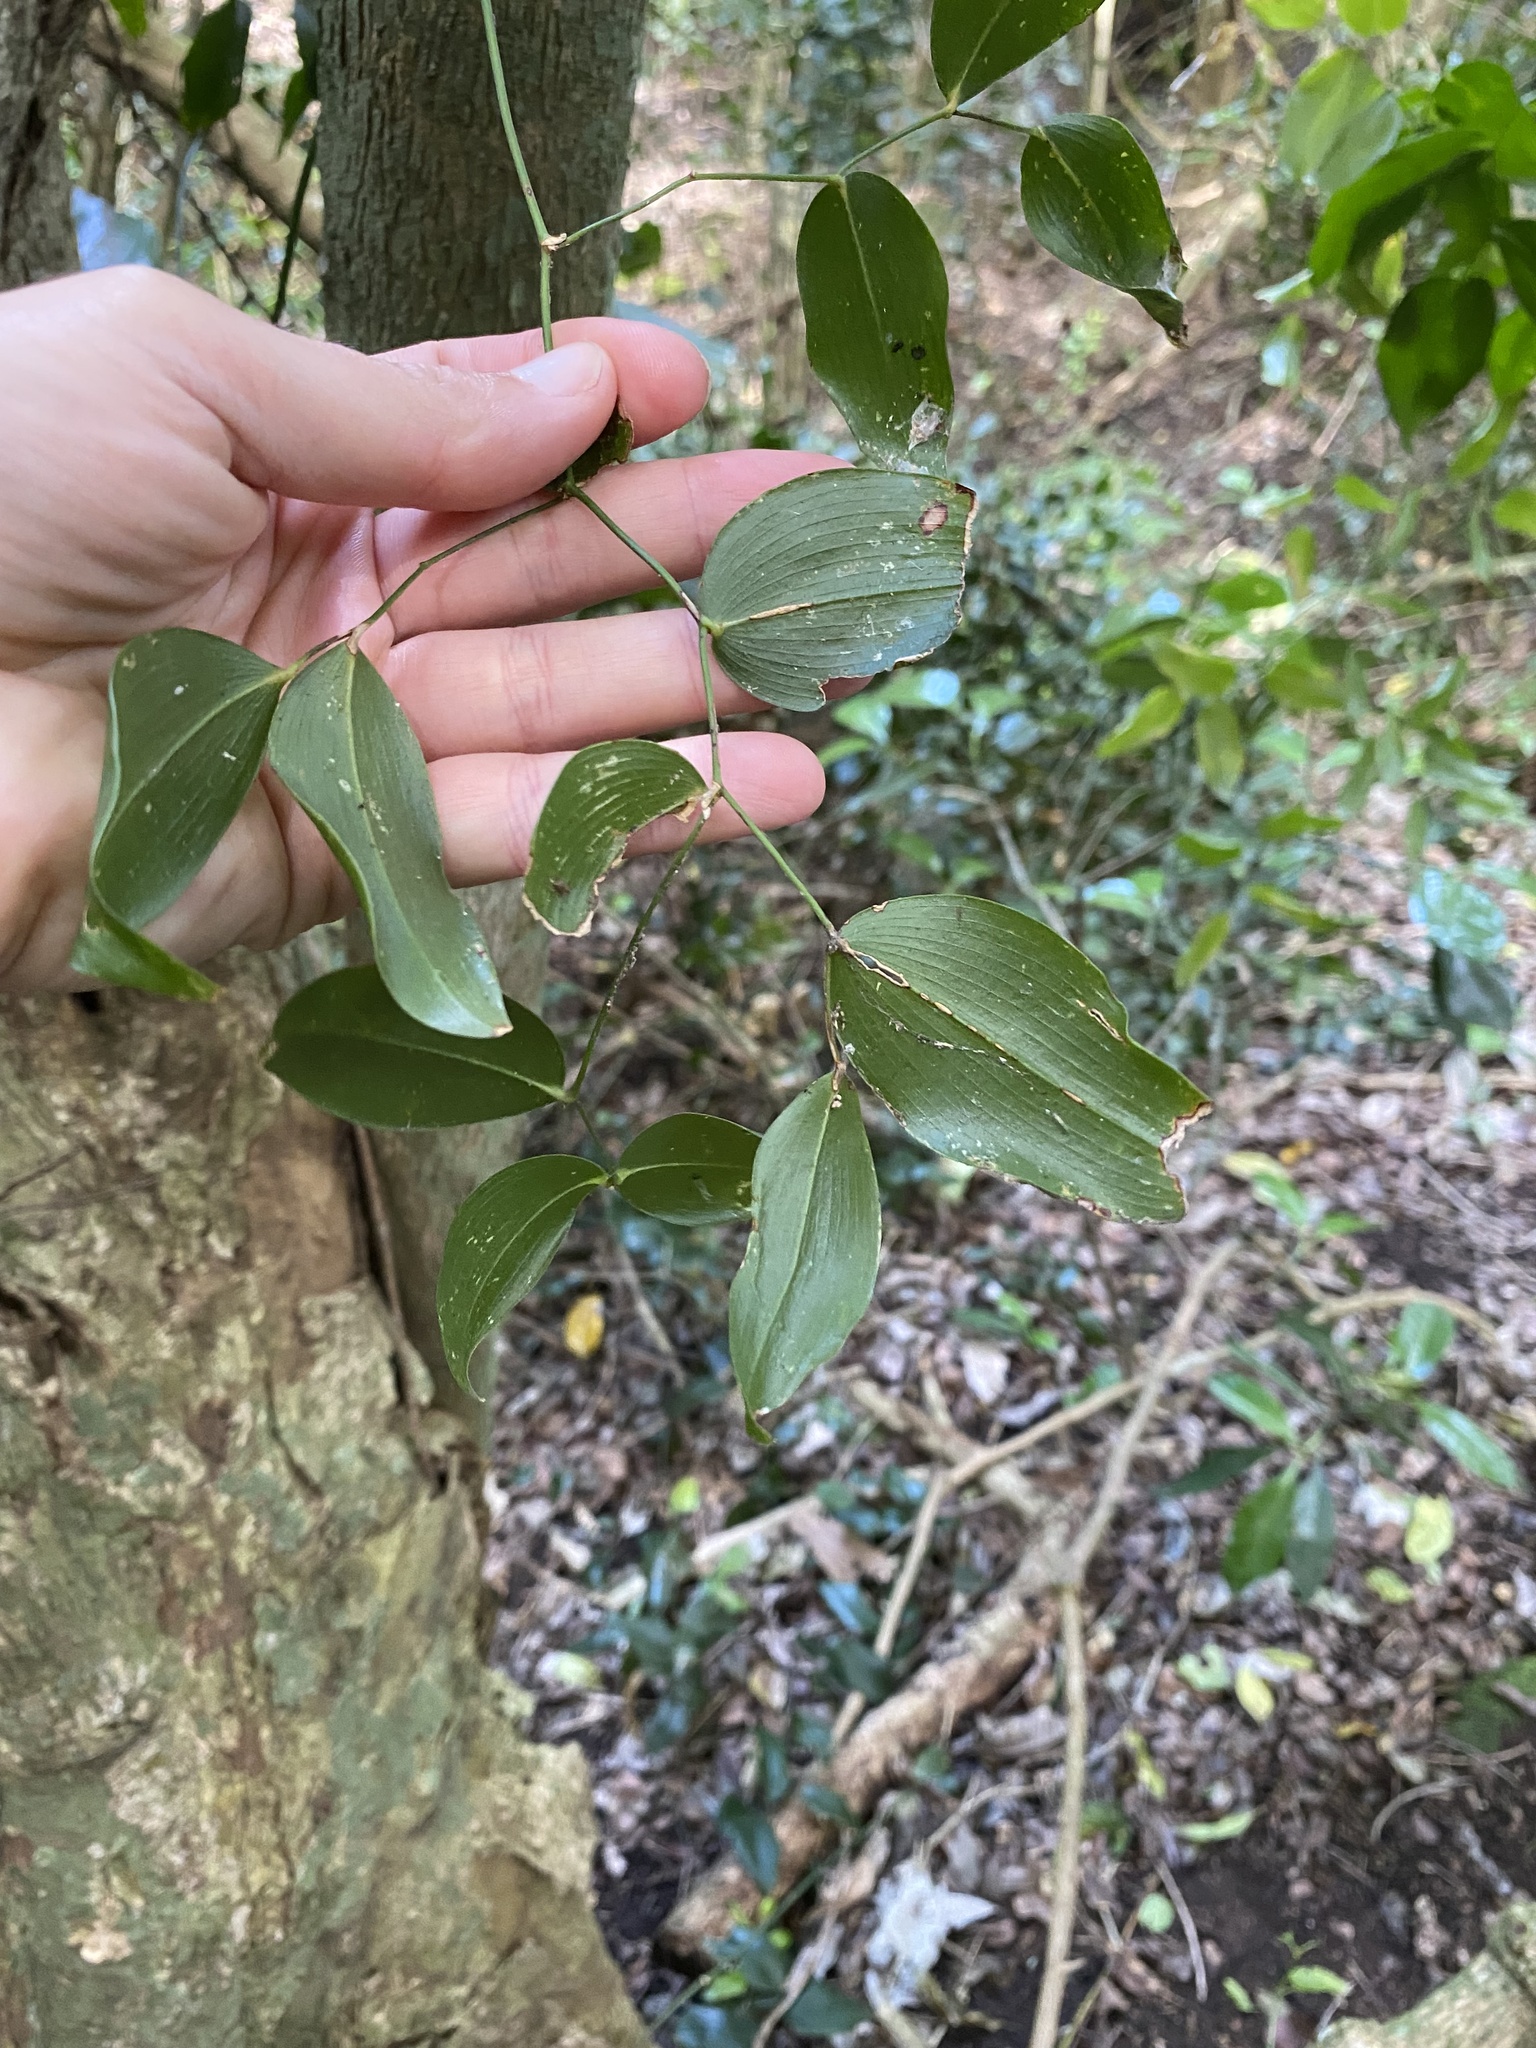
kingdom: Plantae
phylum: Tracheophyta
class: Liliopsida
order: Asparagales
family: Asparagaceae
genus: Behnia
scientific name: Behnia reticulata
